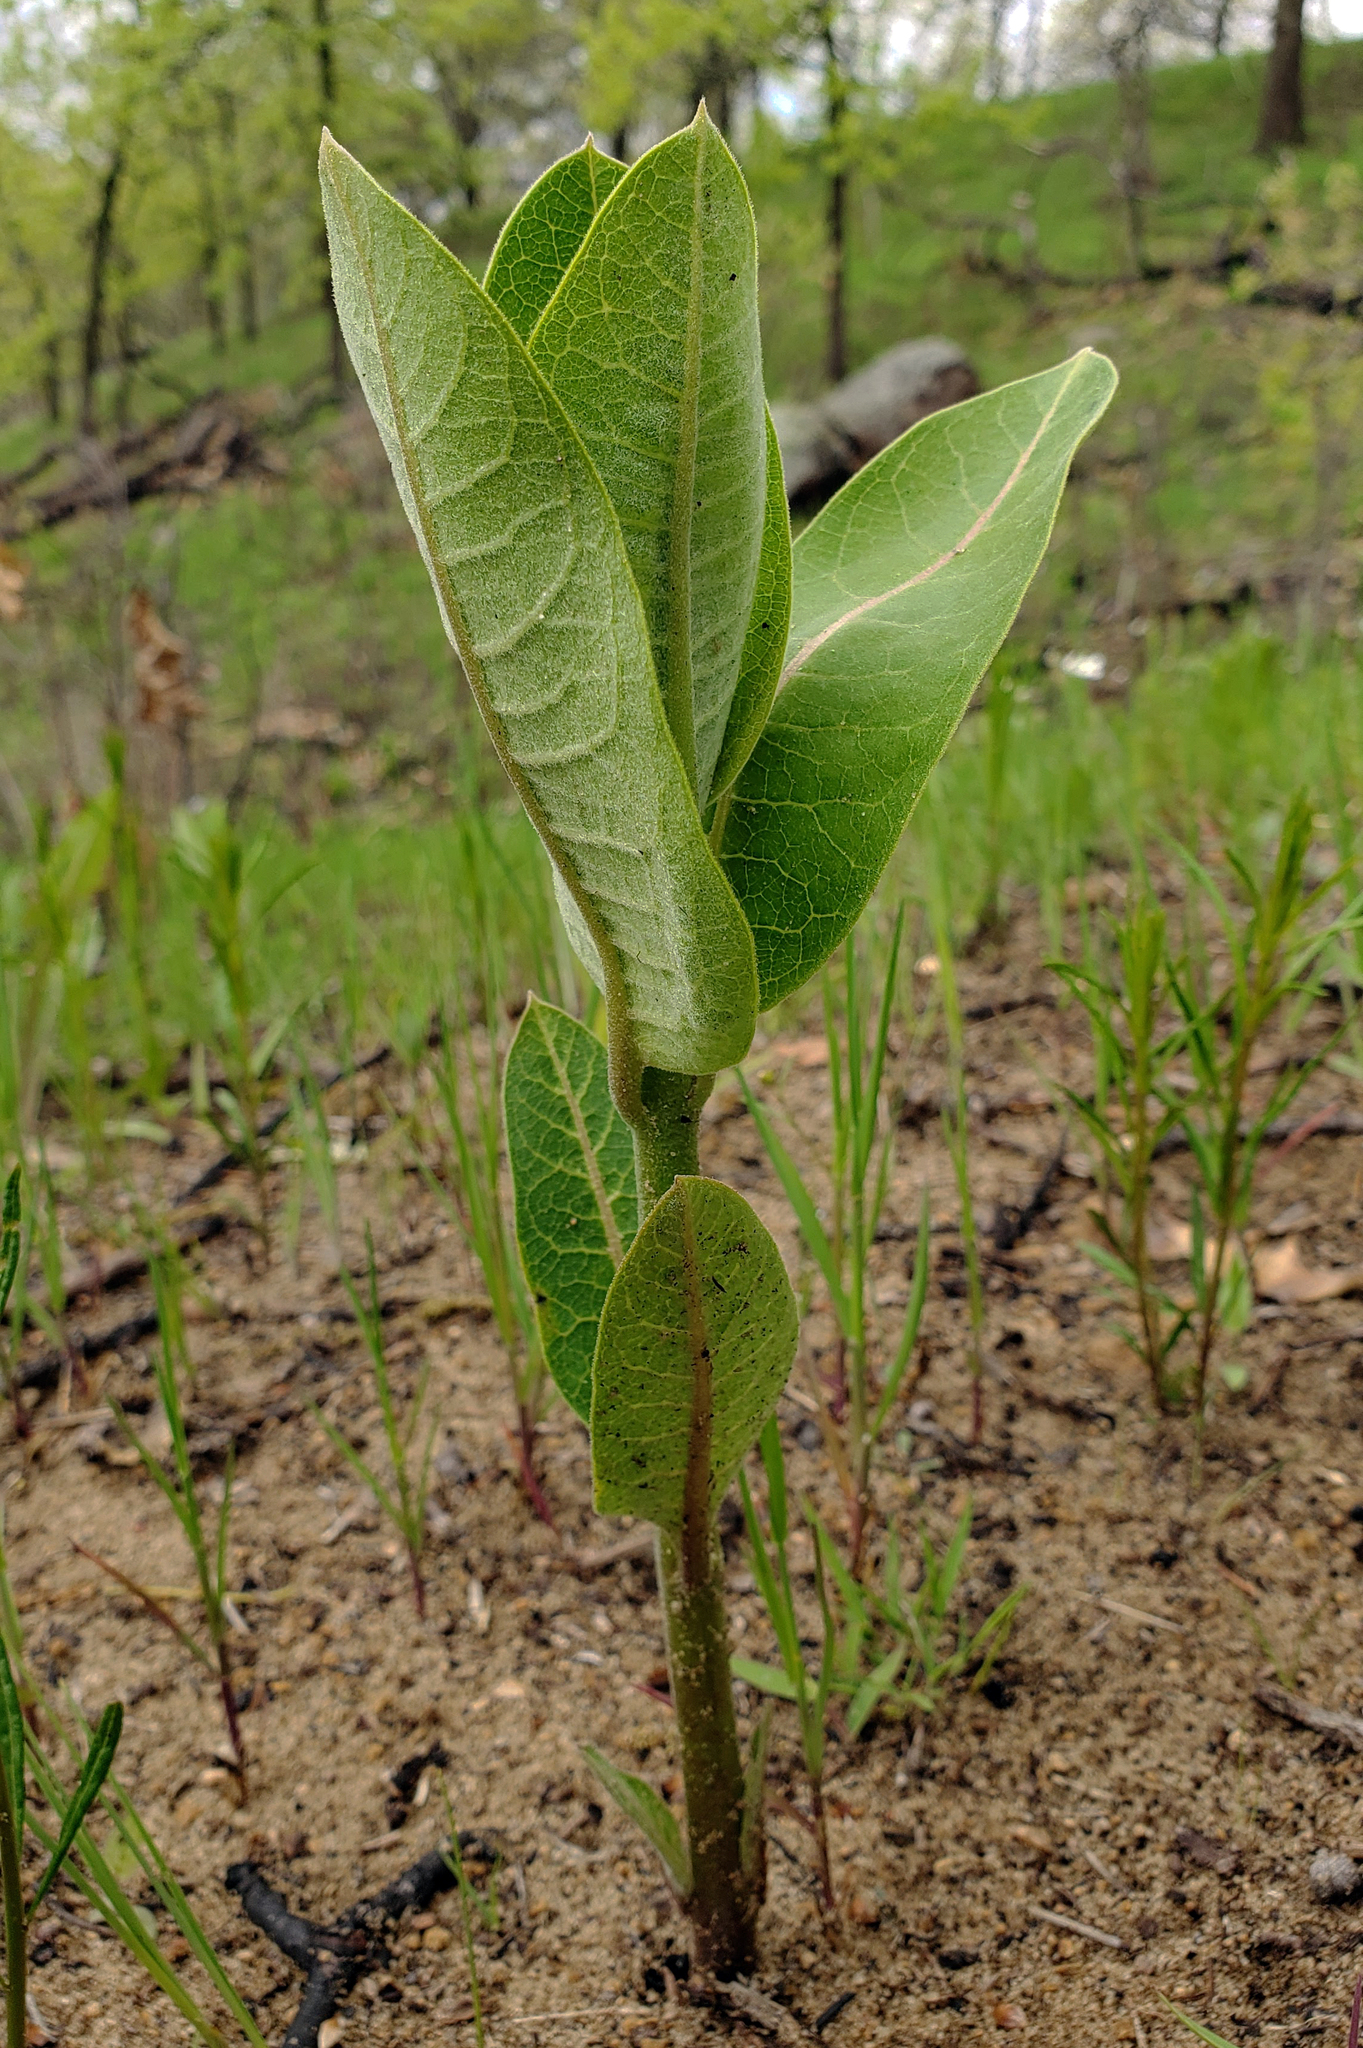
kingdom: Plantae
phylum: Tracheophyta
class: Magnoliopsida
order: Gentianales
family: Apocynaceae
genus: Asclepias
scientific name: Asclepias syriaca
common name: Common milkweed
